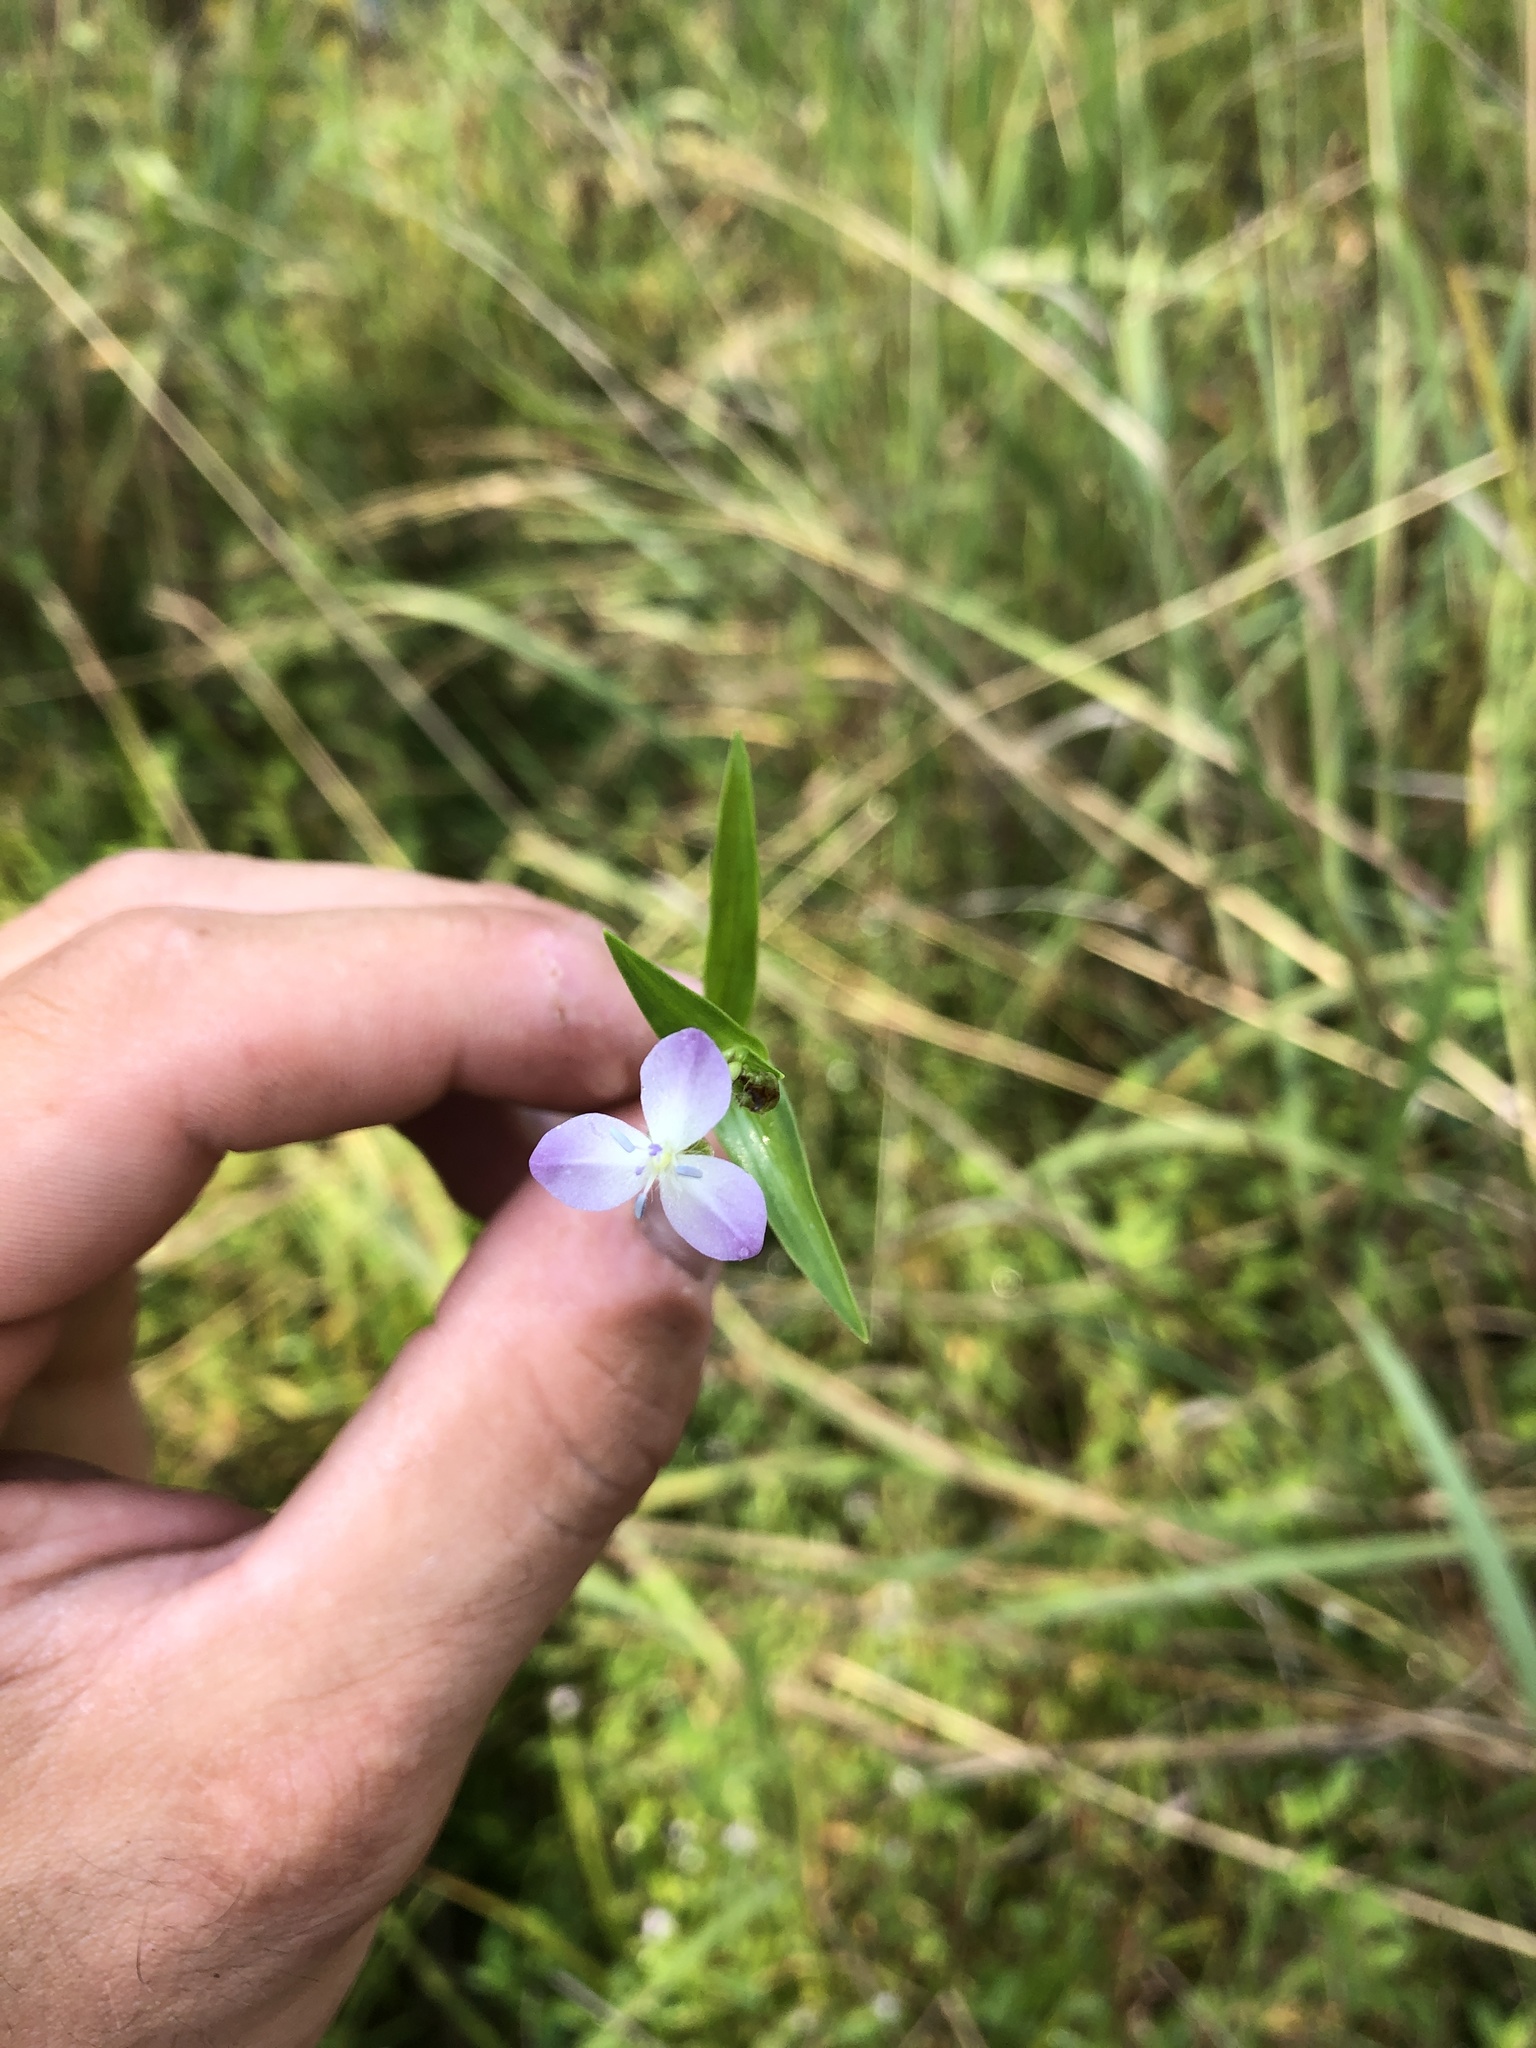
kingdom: Plantae
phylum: Tracheophyta
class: Liliopsida
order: Commelinales
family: Commelinaceae
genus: Murdannia
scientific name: Murdannia keisak
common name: Wartremoving herb
